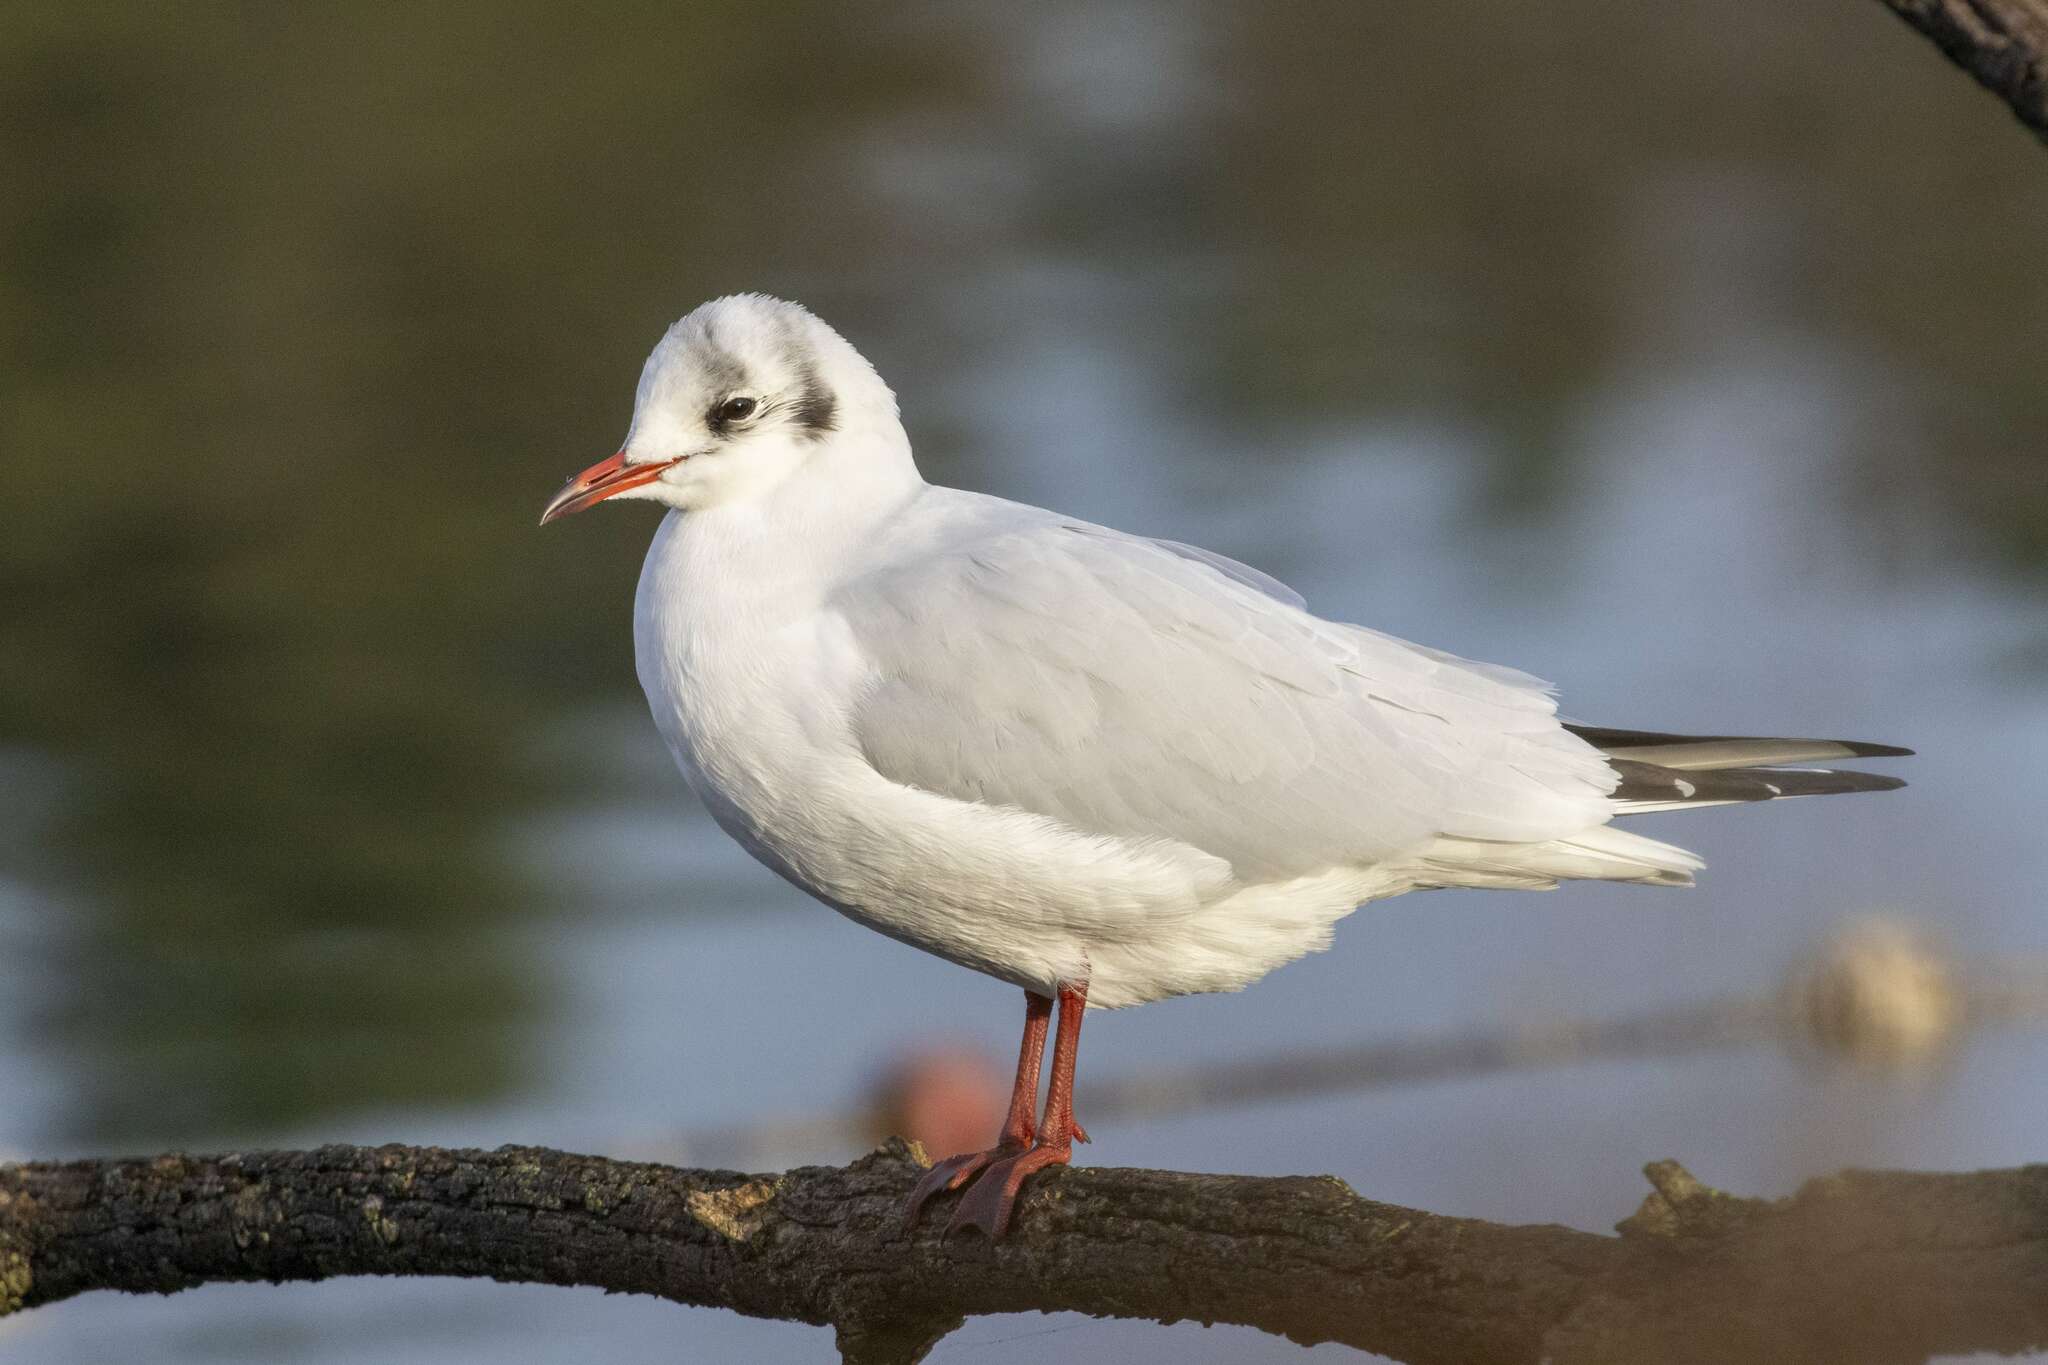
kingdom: Animalia
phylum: Chordata
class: Aves
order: Charadriiformes
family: Laridae
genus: Chroicocephalus
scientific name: Chroicocephalus ridibundus
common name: Black-headed gull
